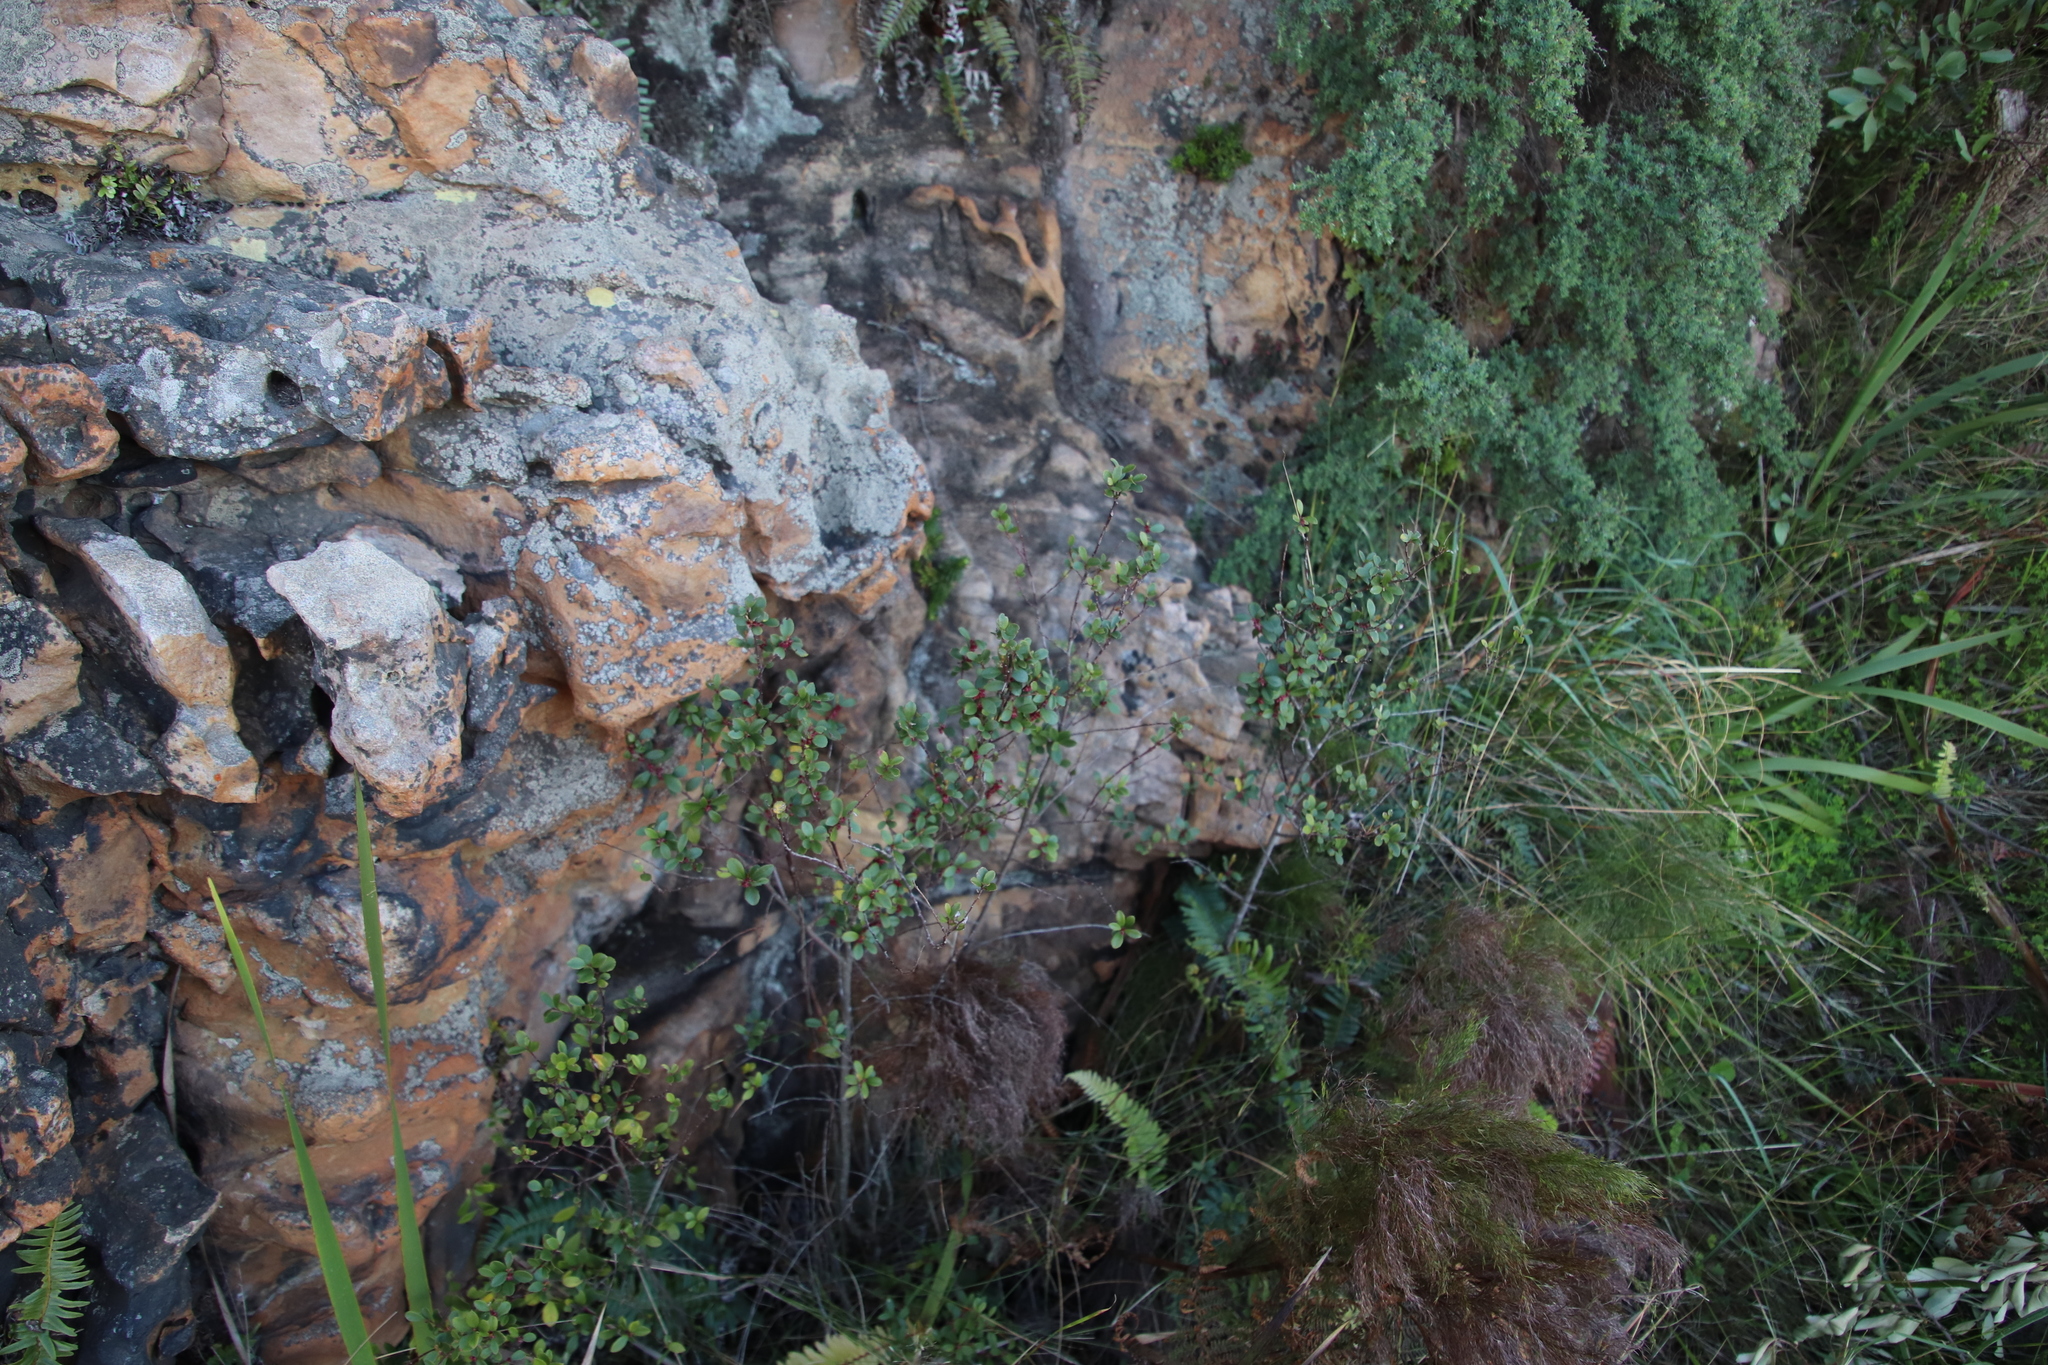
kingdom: Plantae
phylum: Tracheophyta
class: Magnoliopsida
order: Ericales
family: Primulaceae
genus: Myrsine
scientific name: Myrsine africana
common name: African-boxwood
